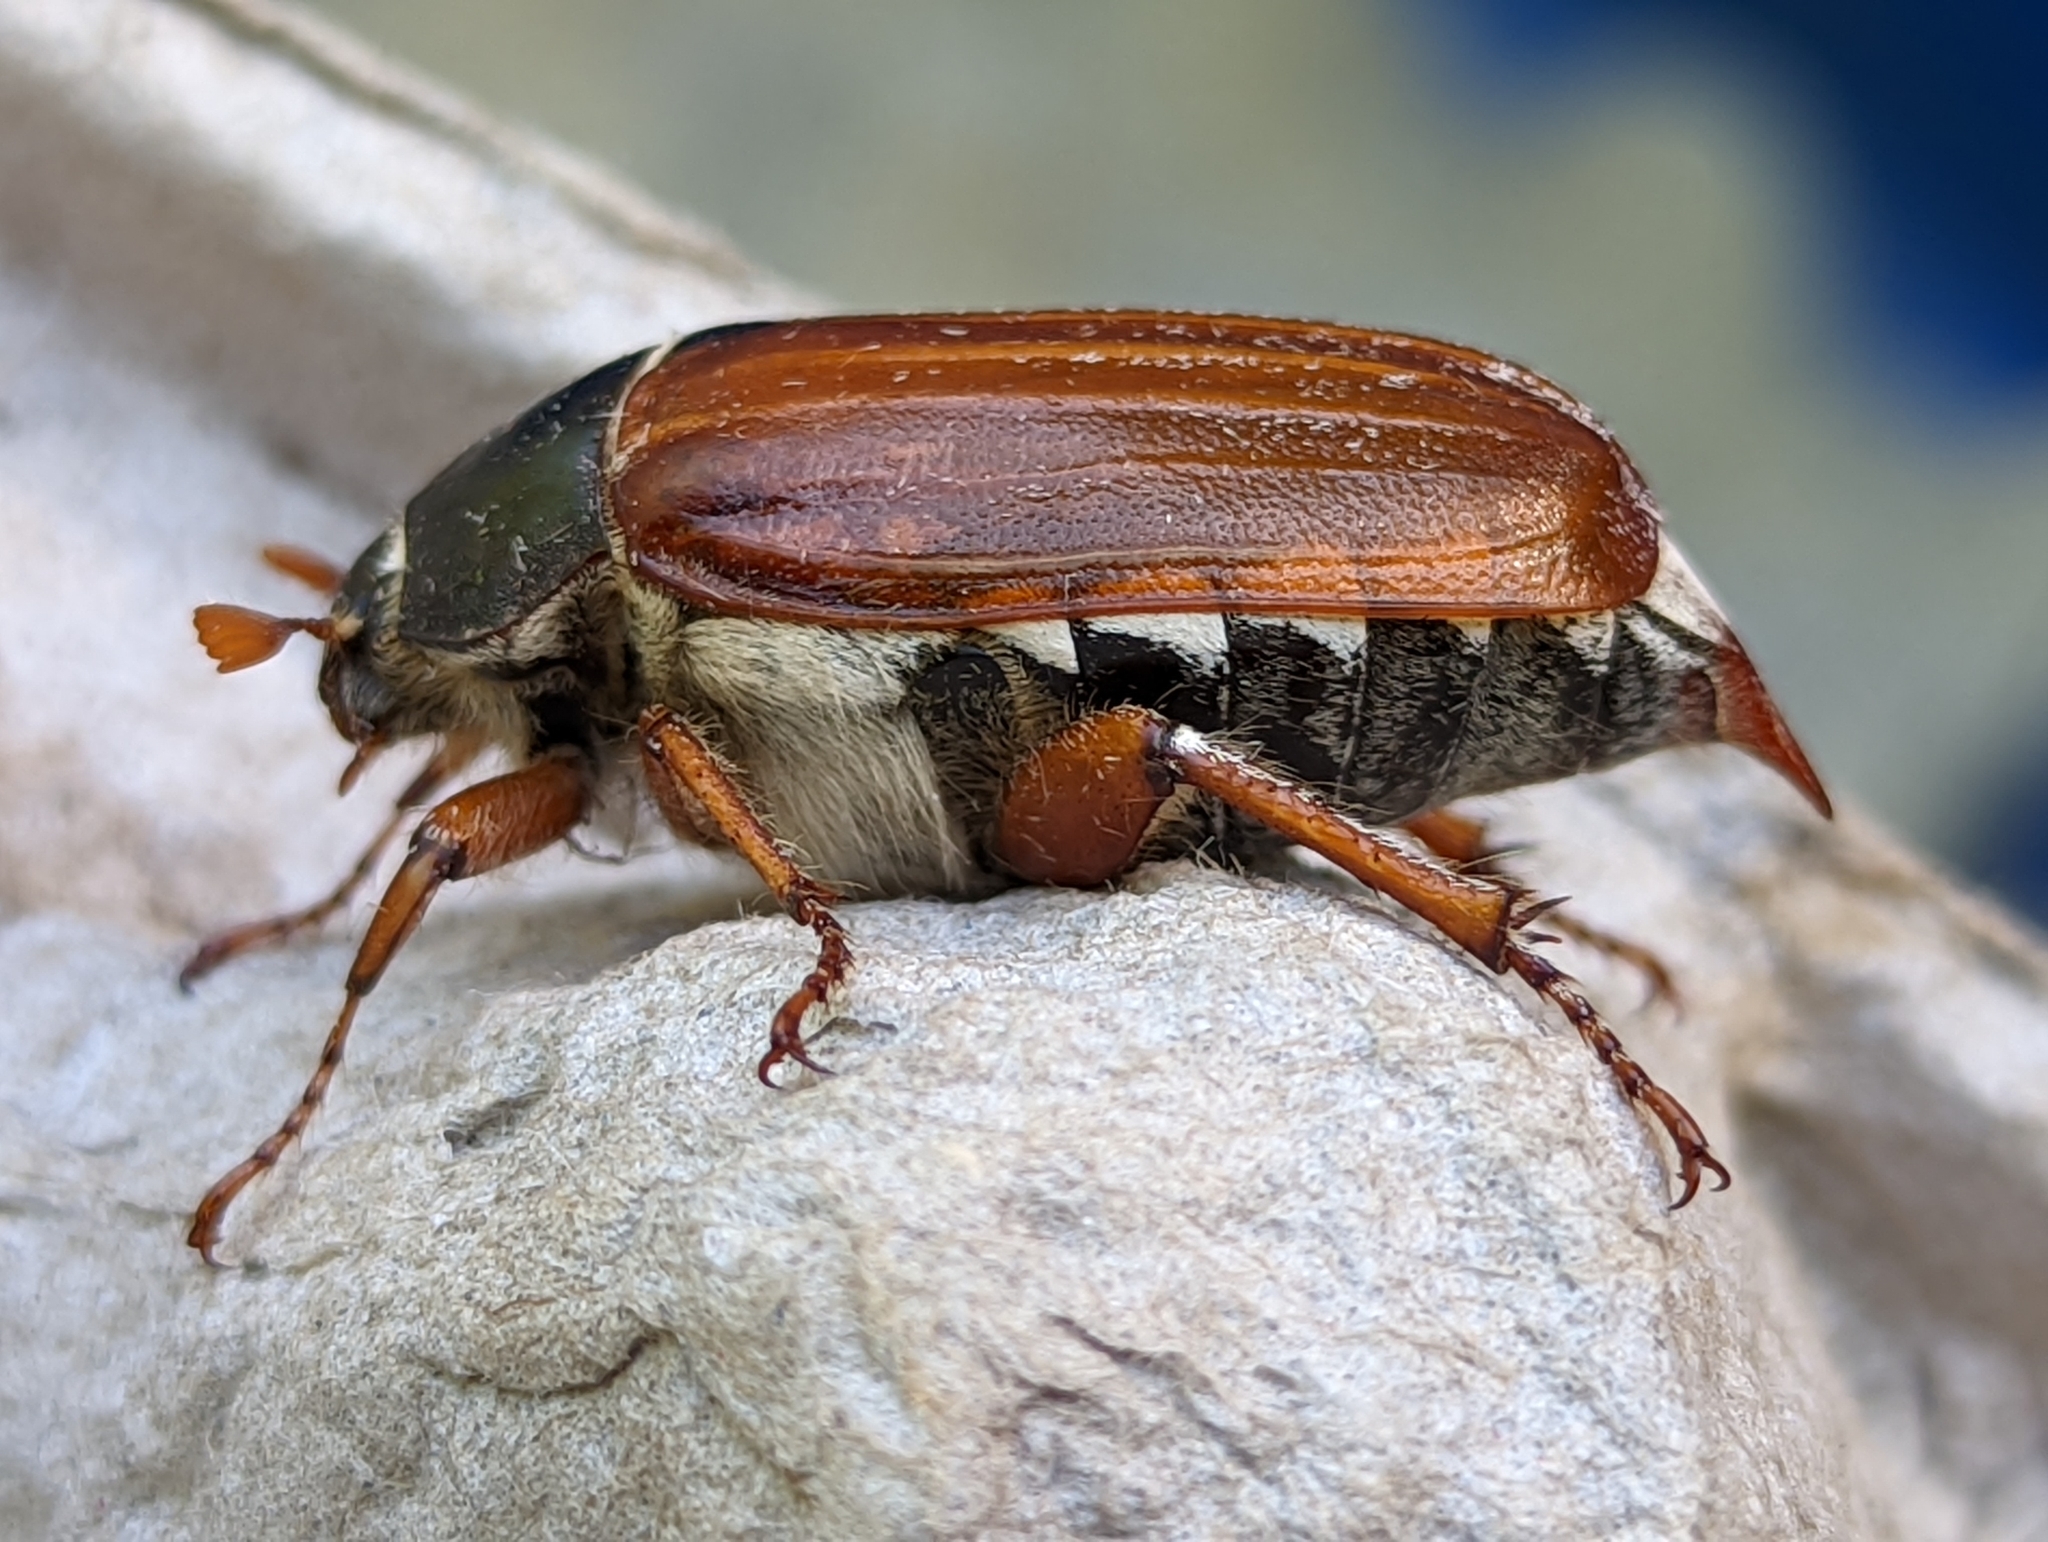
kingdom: Animalia
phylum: Arthropoda
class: Insecta
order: Coleoptera
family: Scarabaeidae
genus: Melolontha
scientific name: Melolontha melolontha
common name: Cockchafer maybeetle
